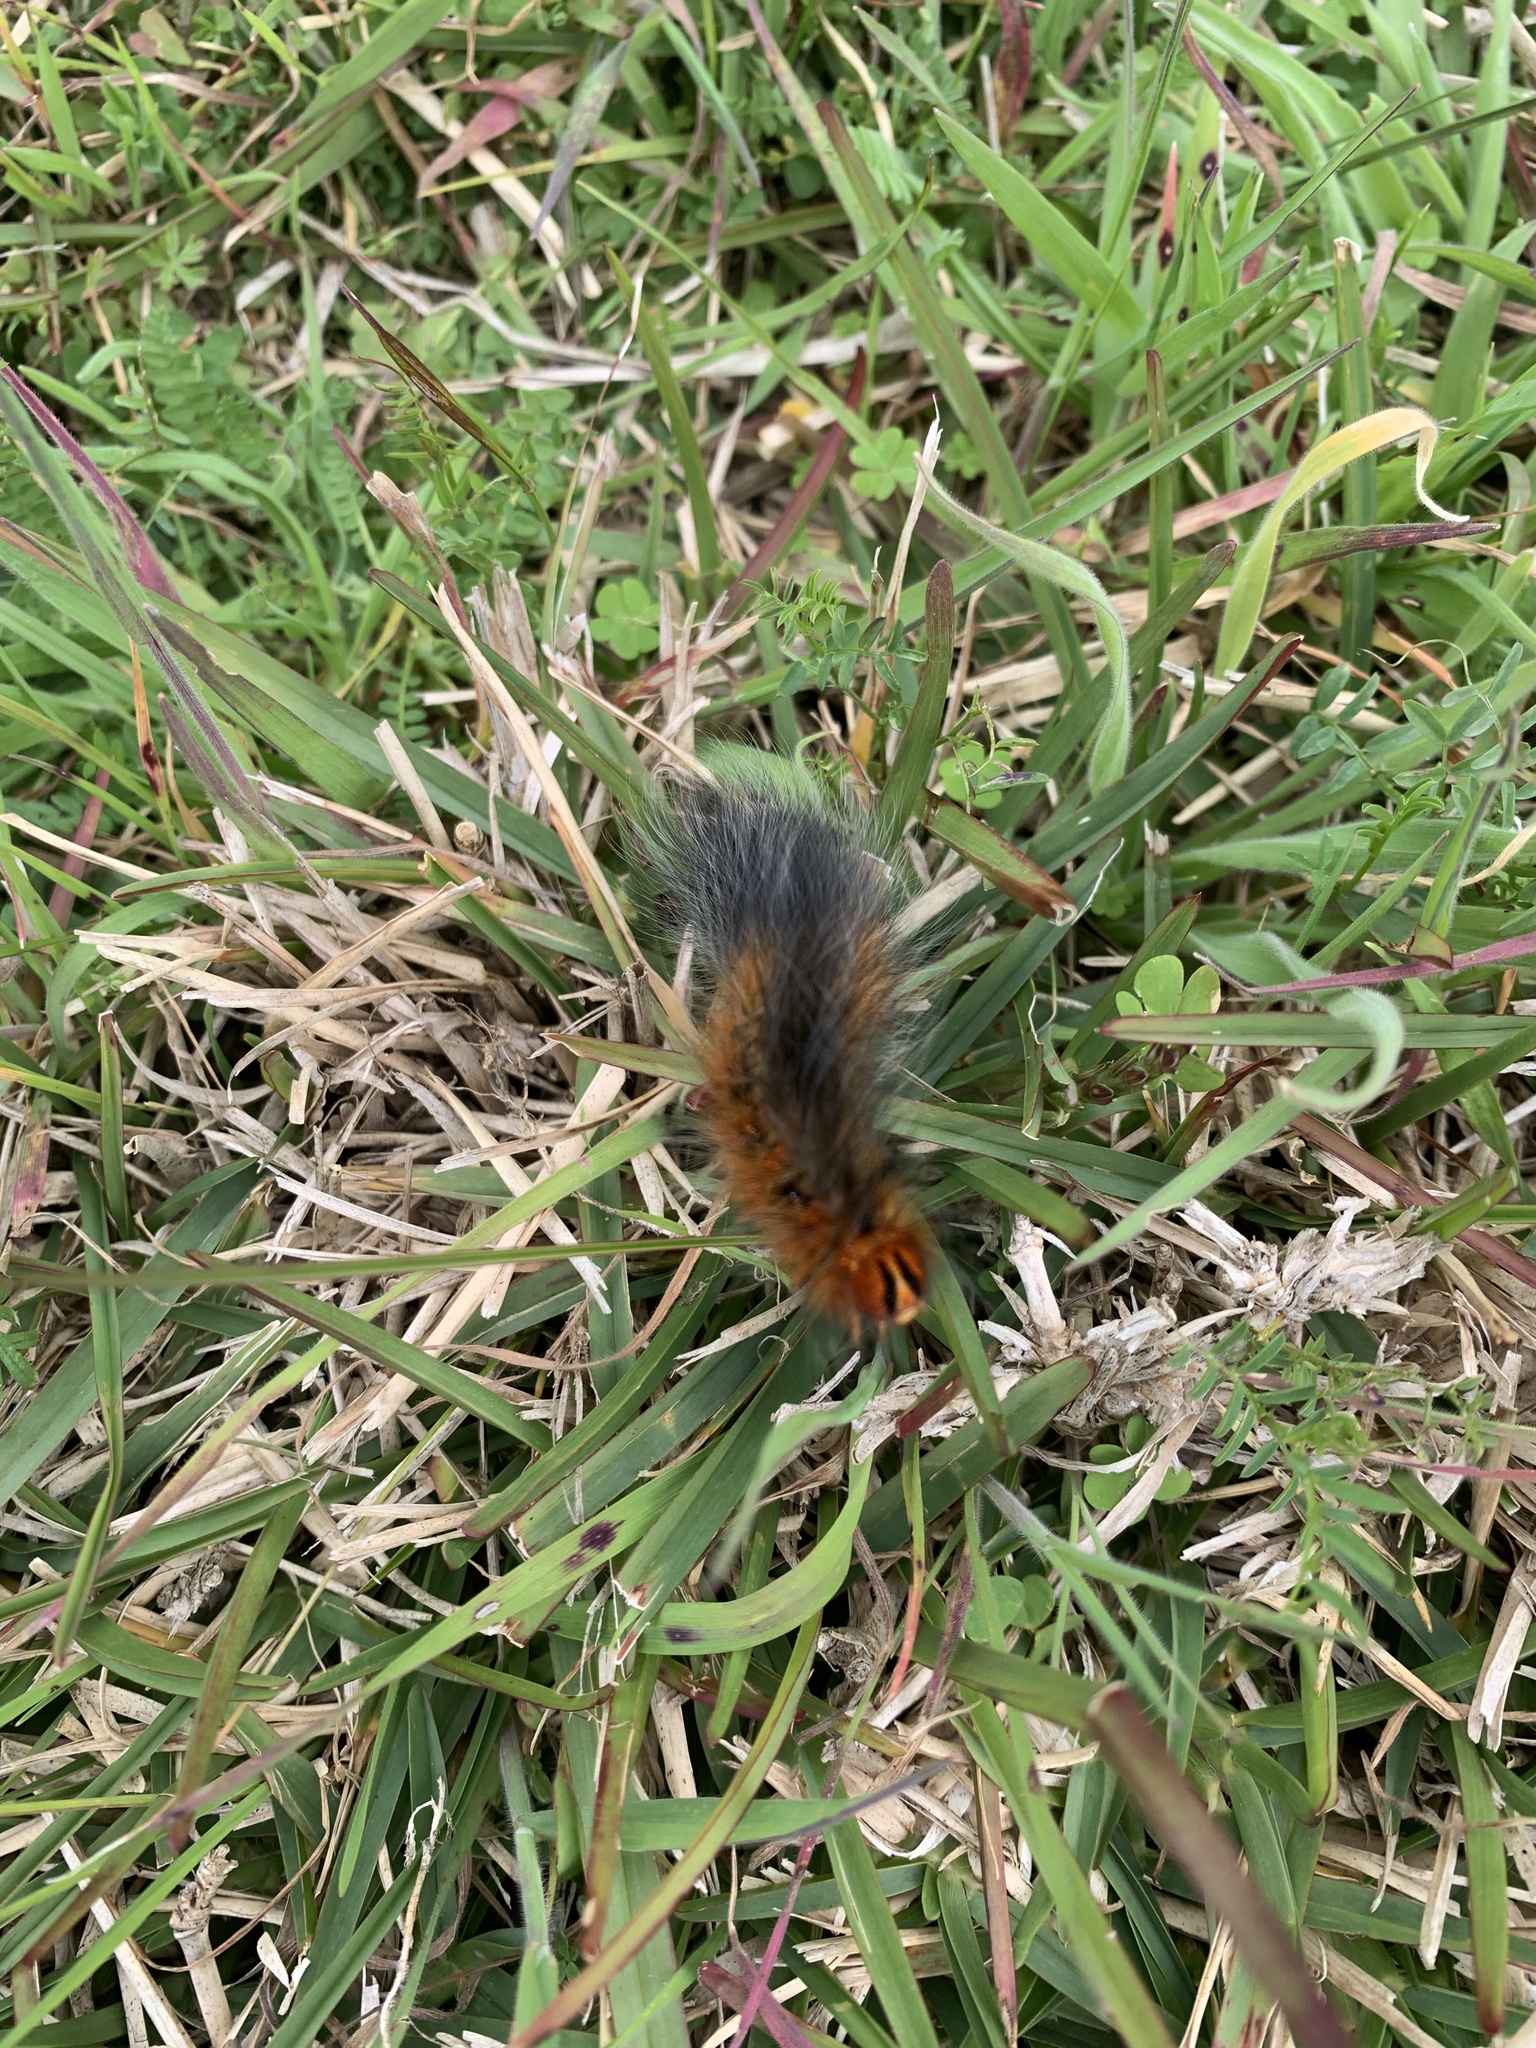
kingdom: Animalia
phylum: Arthropoda
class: Insecta
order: Lepidoptera
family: Lasiocampidae
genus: Mesocelis
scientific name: Mesocelis monticola
